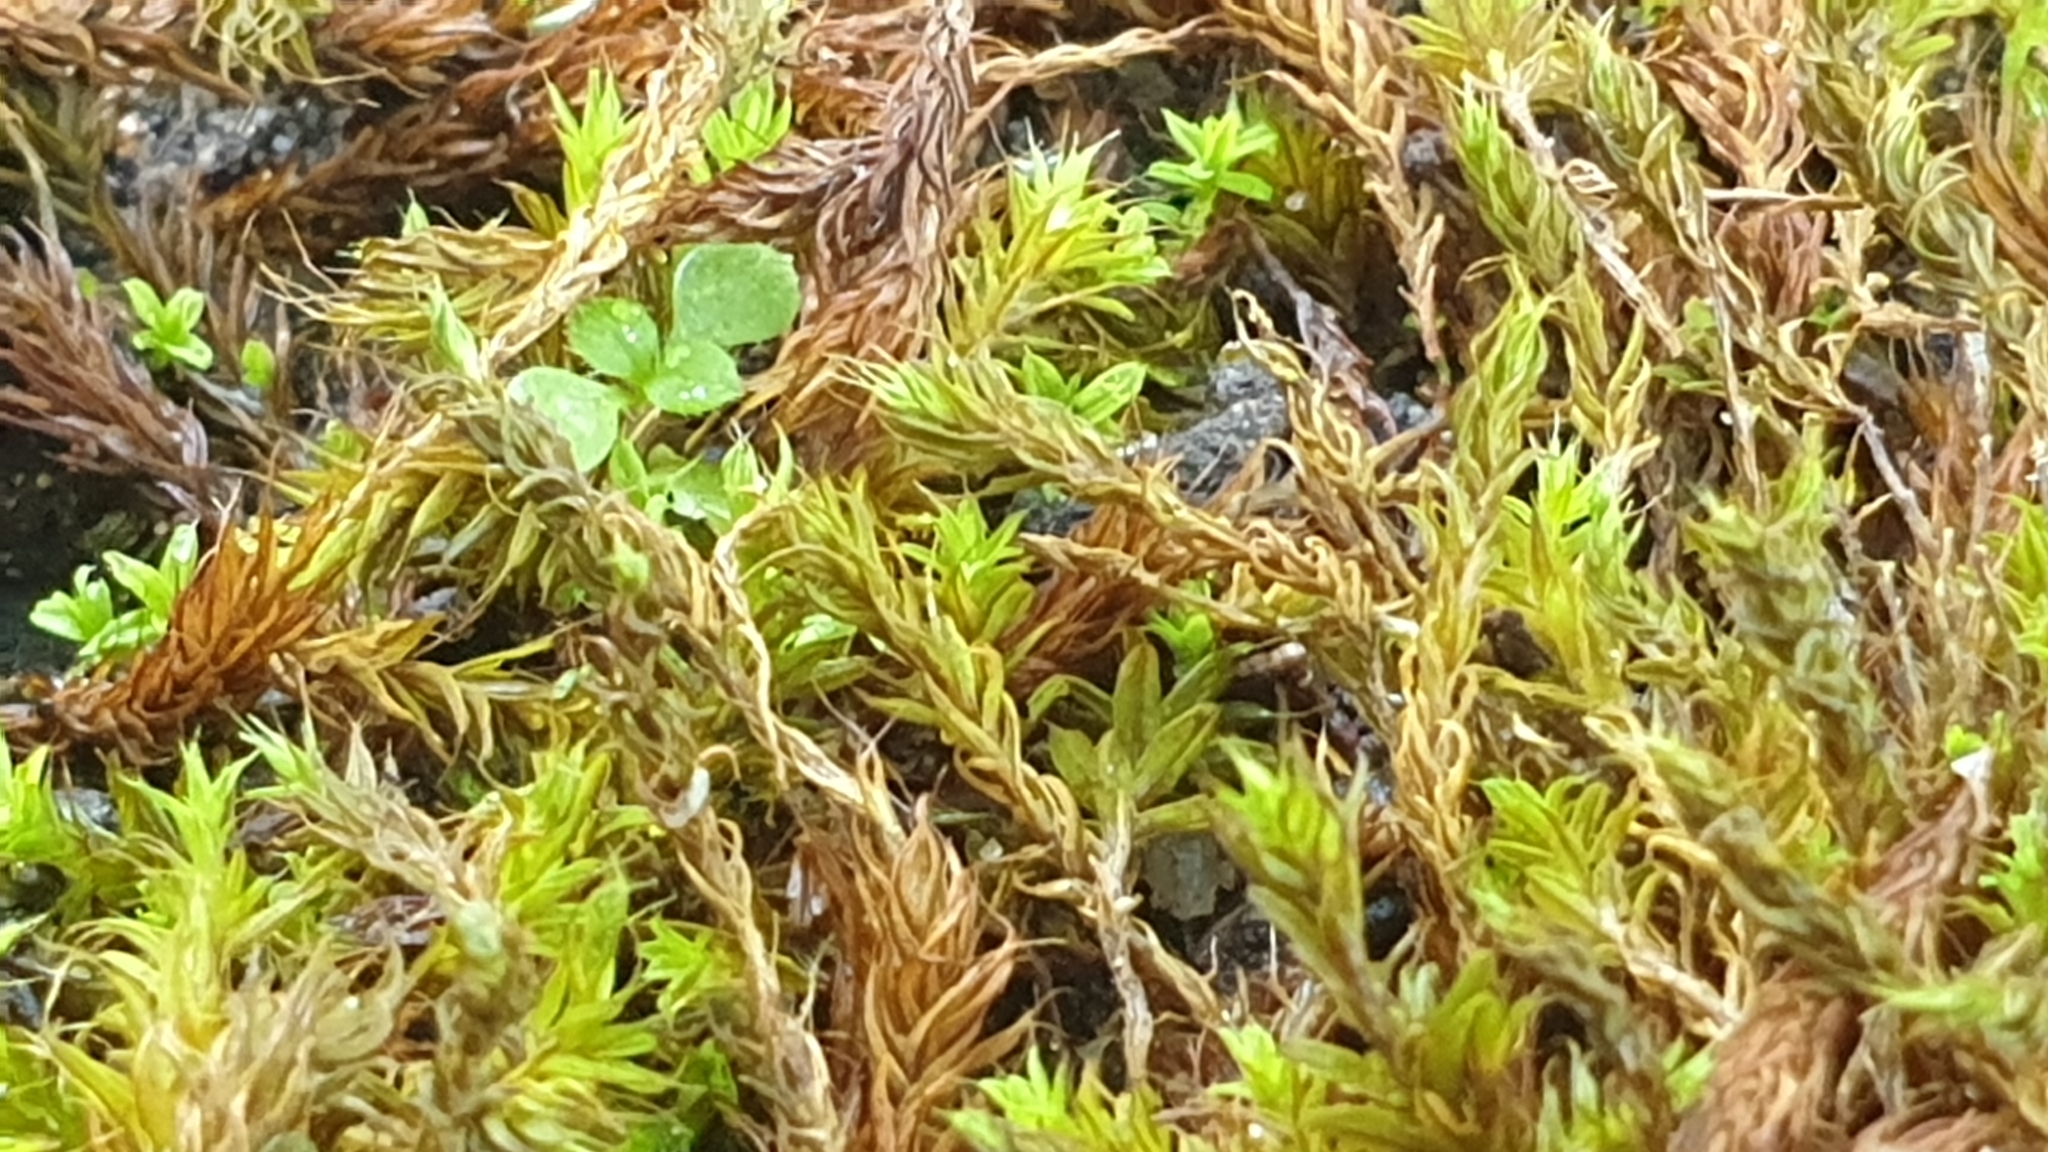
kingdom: Plantae
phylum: Bryophyta
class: Bryopsida
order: Pottiales
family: Pottiaceae
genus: Pseudocrossidium
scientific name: Pseudocrossidium crinitum
